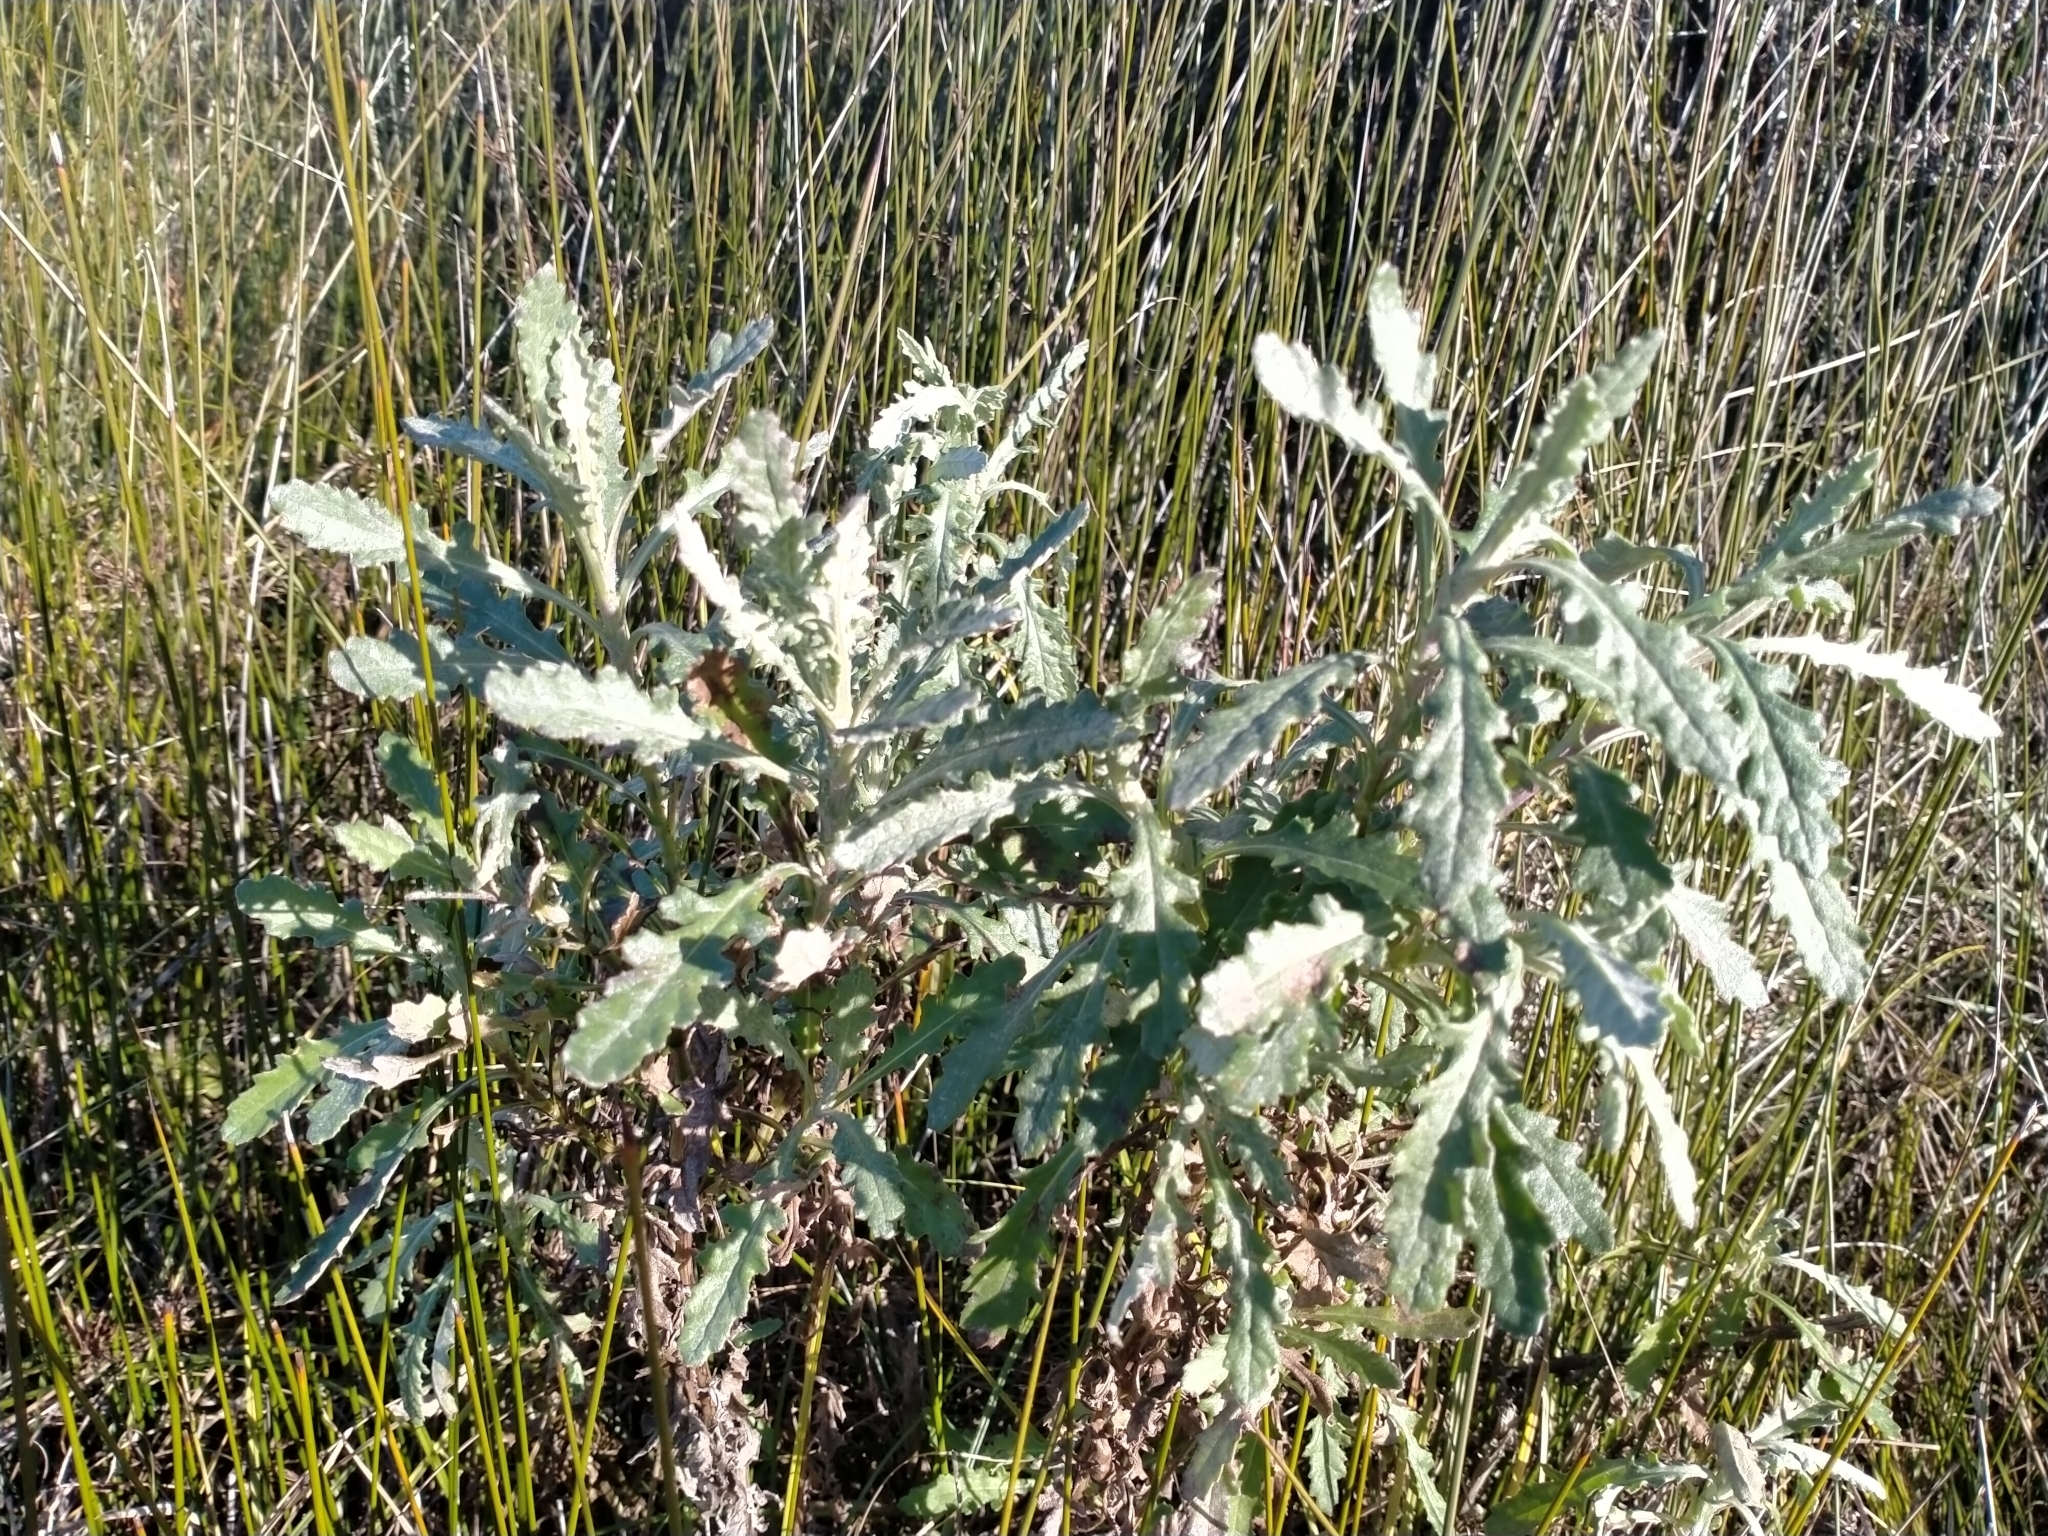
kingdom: Plantae
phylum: Tracheophyta
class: Magnoliopsida
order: Asterales
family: Asteraceae
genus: Senecio
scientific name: Senecio glomeratus
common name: Cutleaf burnweed
